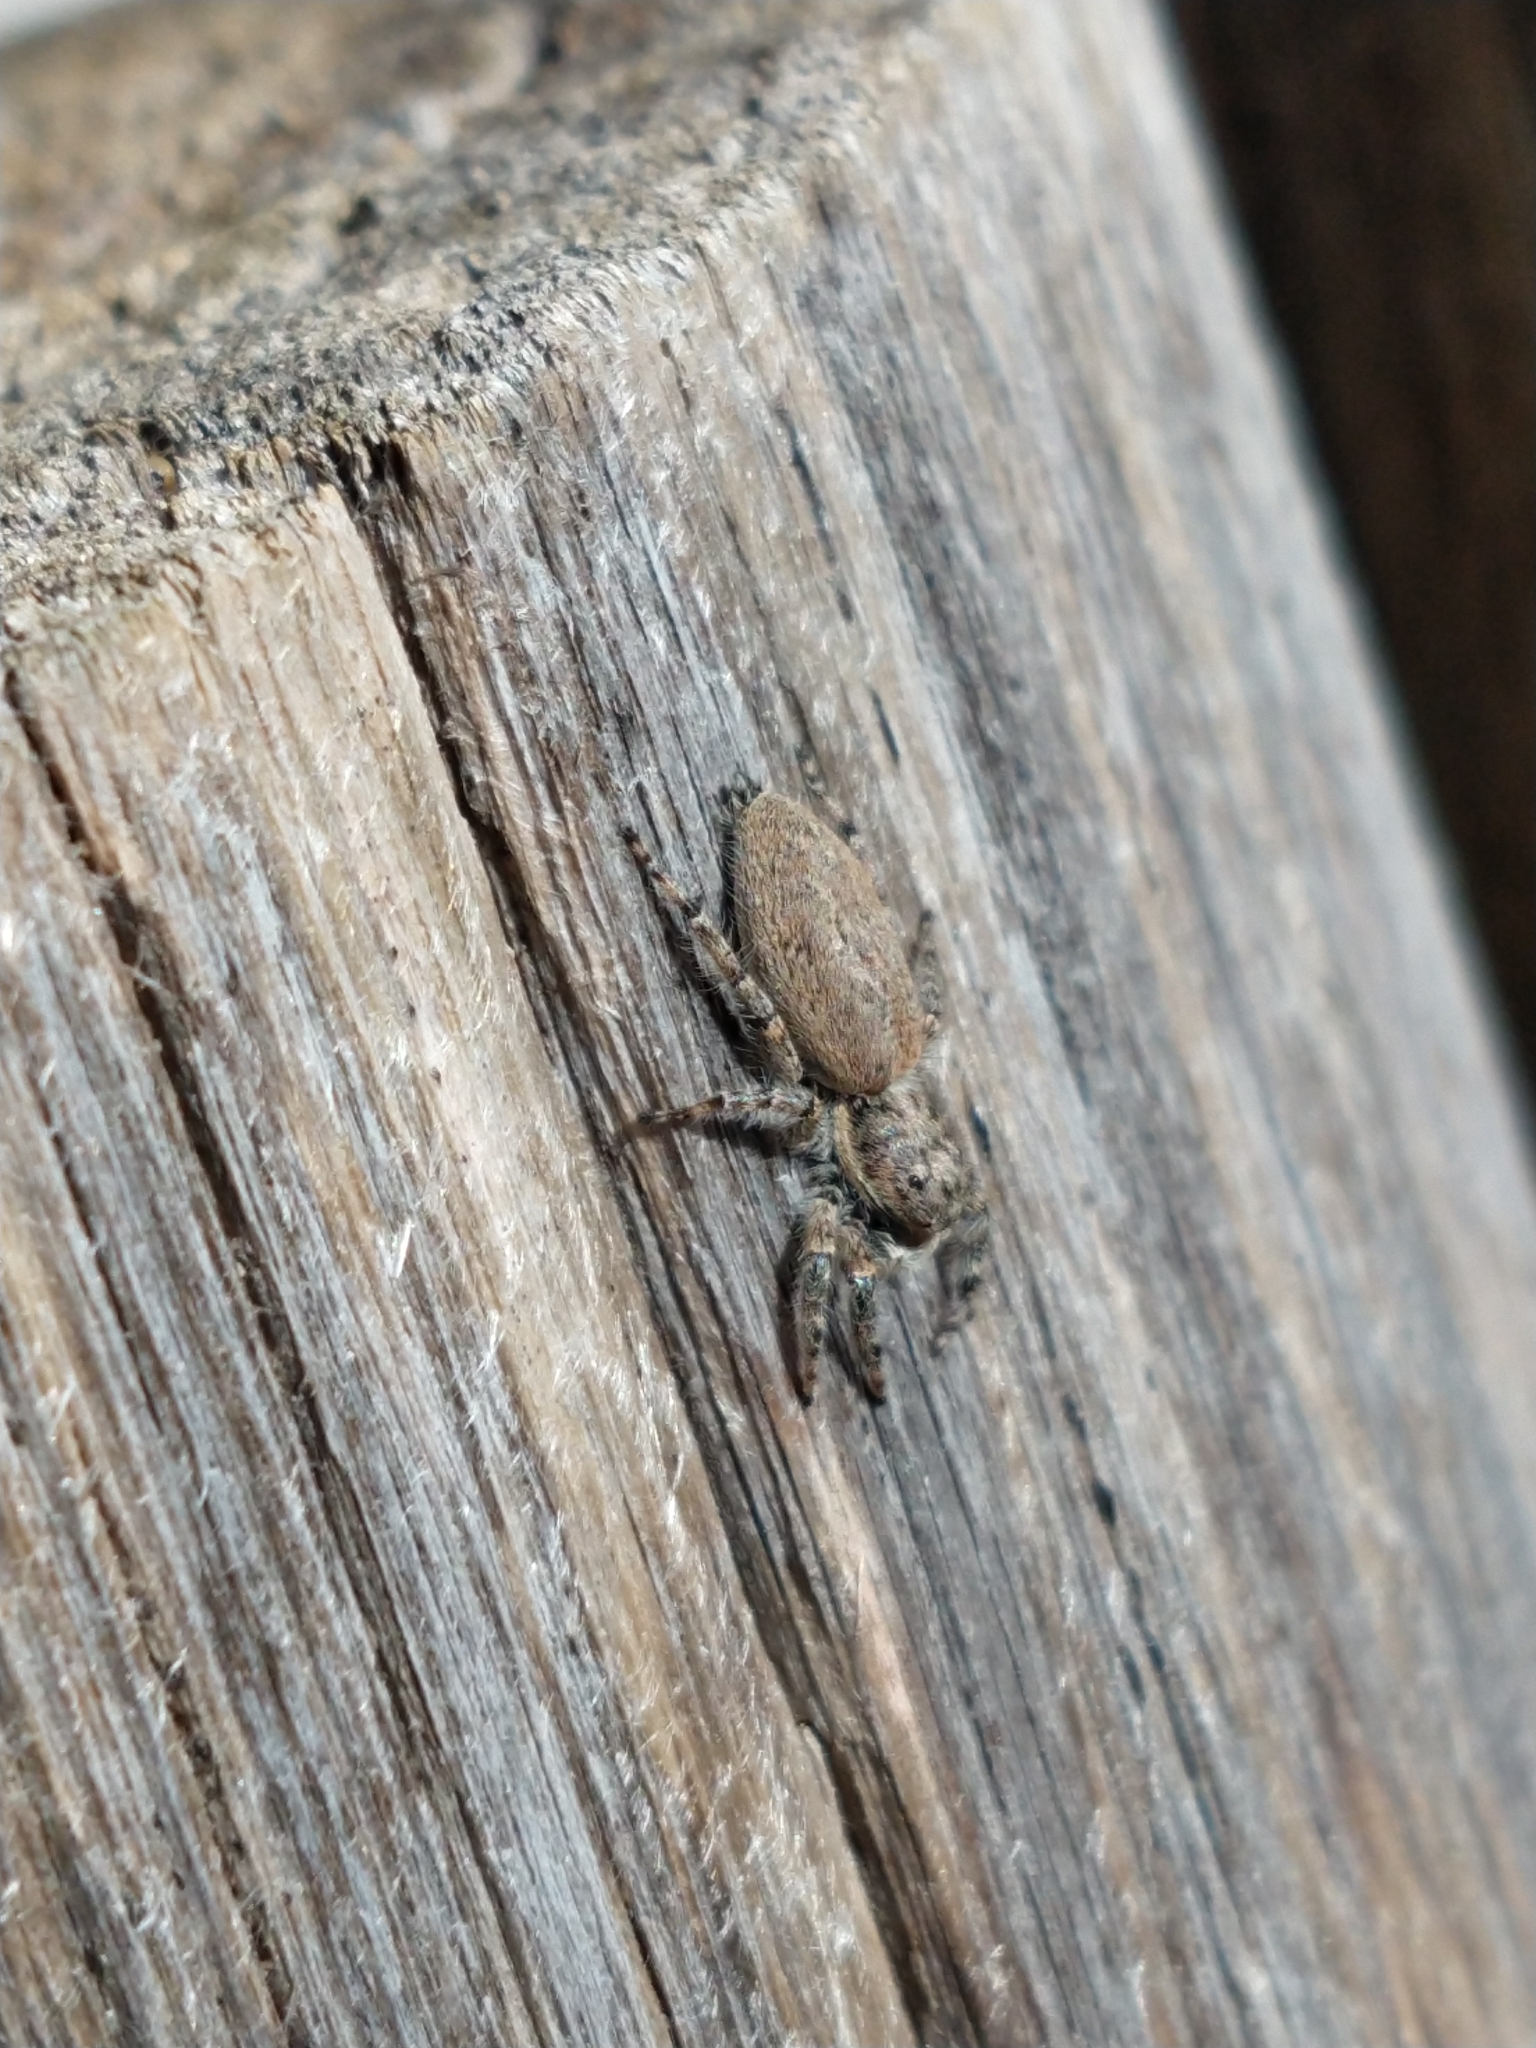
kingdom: Animalia
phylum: Arthropoda
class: Arachnida
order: Araneae
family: Salticidae
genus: Menemerus
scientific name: Menemerus taeniatus
